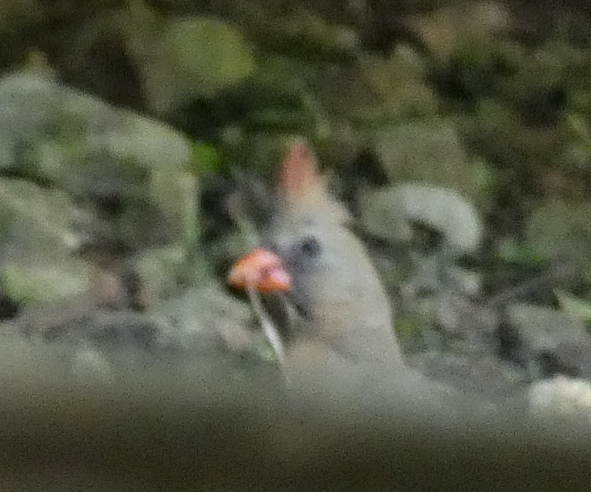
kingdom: Animalia
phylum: Chordata
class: Aves
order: Passeriformes
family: Cardinalidae
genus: Cardinalis
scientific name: Cardinalis cardinalis
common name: Northern cardinal
